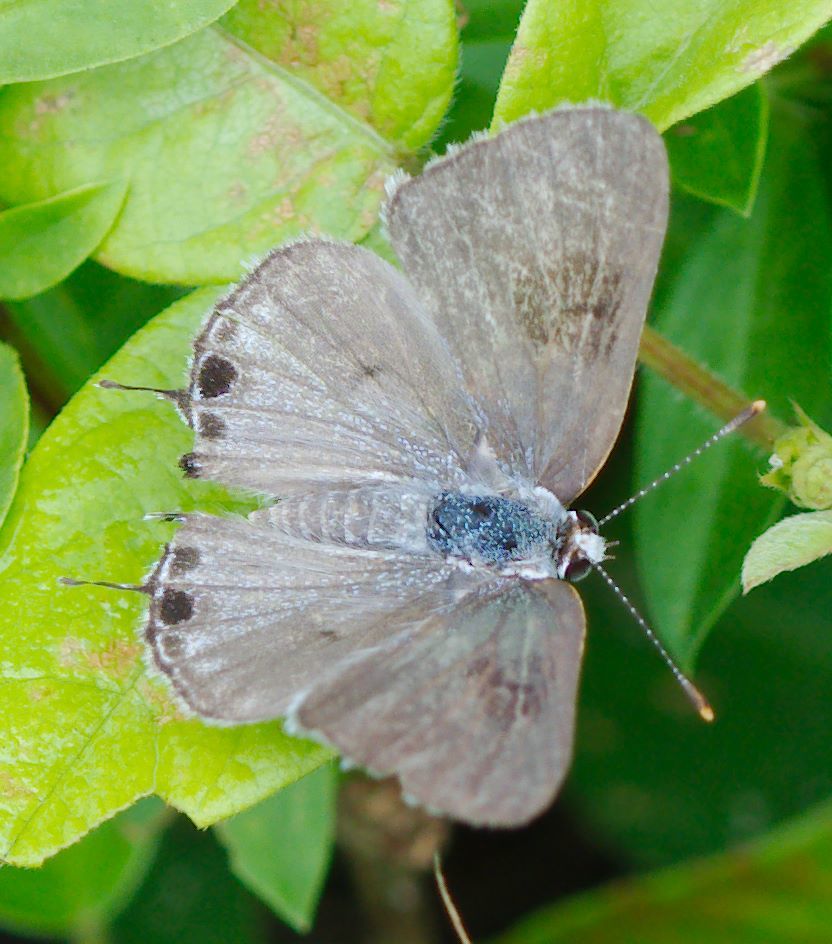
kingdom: Animalia
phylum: Arthropoda
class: Insecta
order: Lepidoptera
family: Lycaenidae
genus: Callicista
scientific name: Callicista columella
